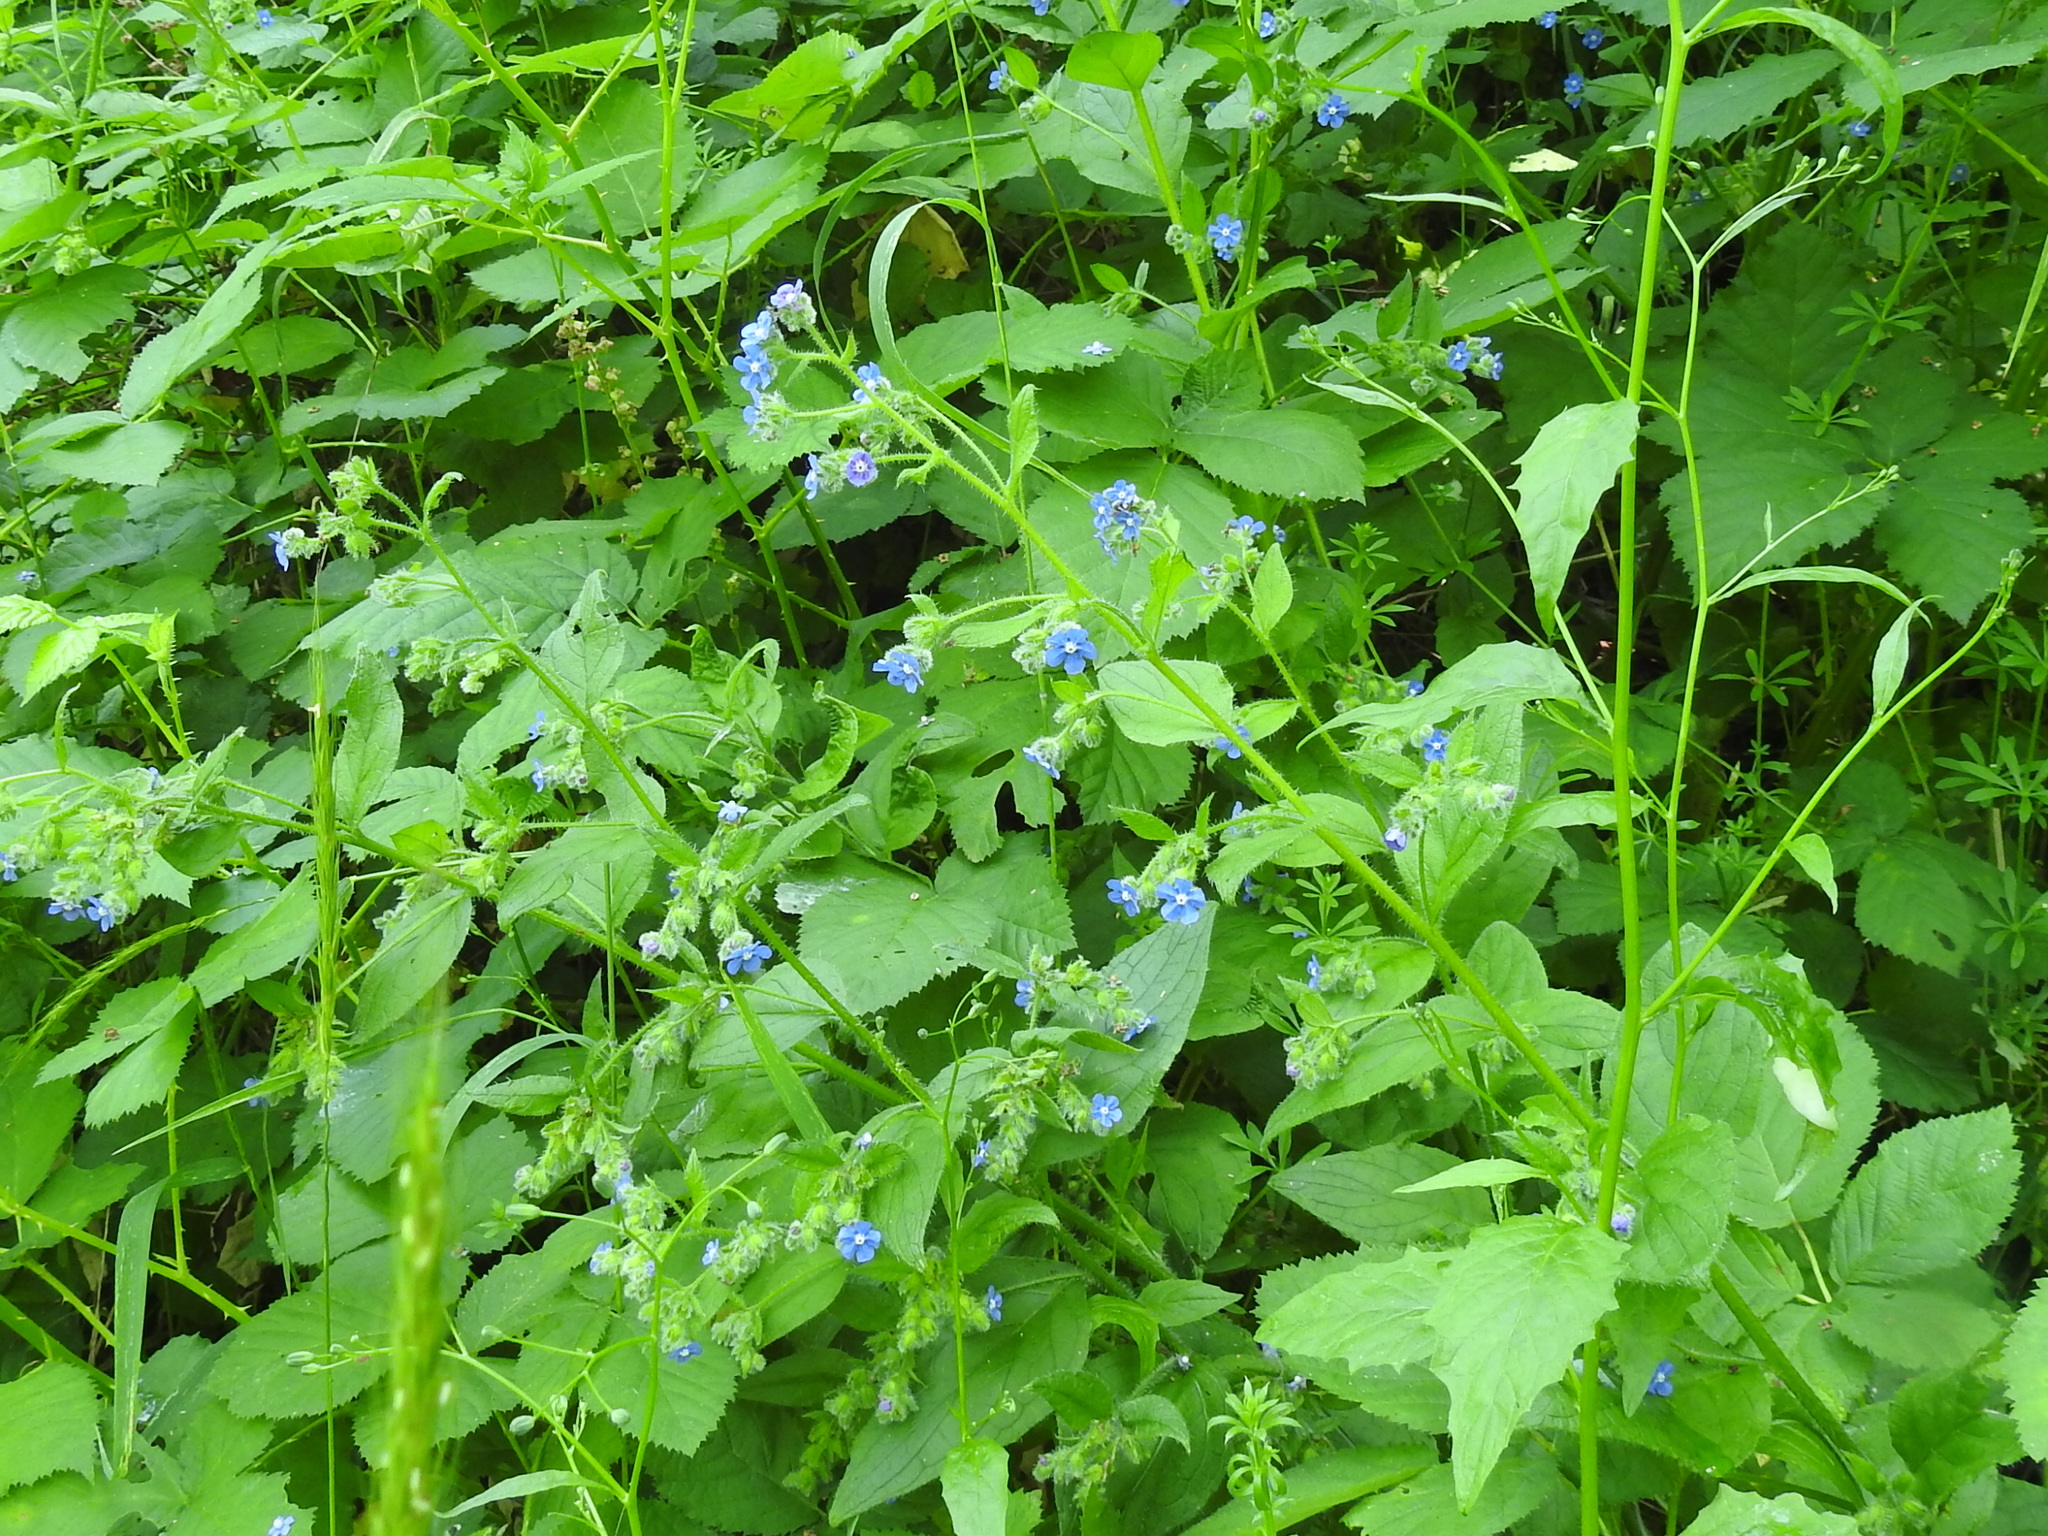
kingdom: Plantae
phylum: Tracheophyta
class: Magnoliopsida
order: Boraginales
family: Boraginaceae
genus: Pentaglottis
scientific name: Pentaglottis sempervirens
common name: Green alkanet
